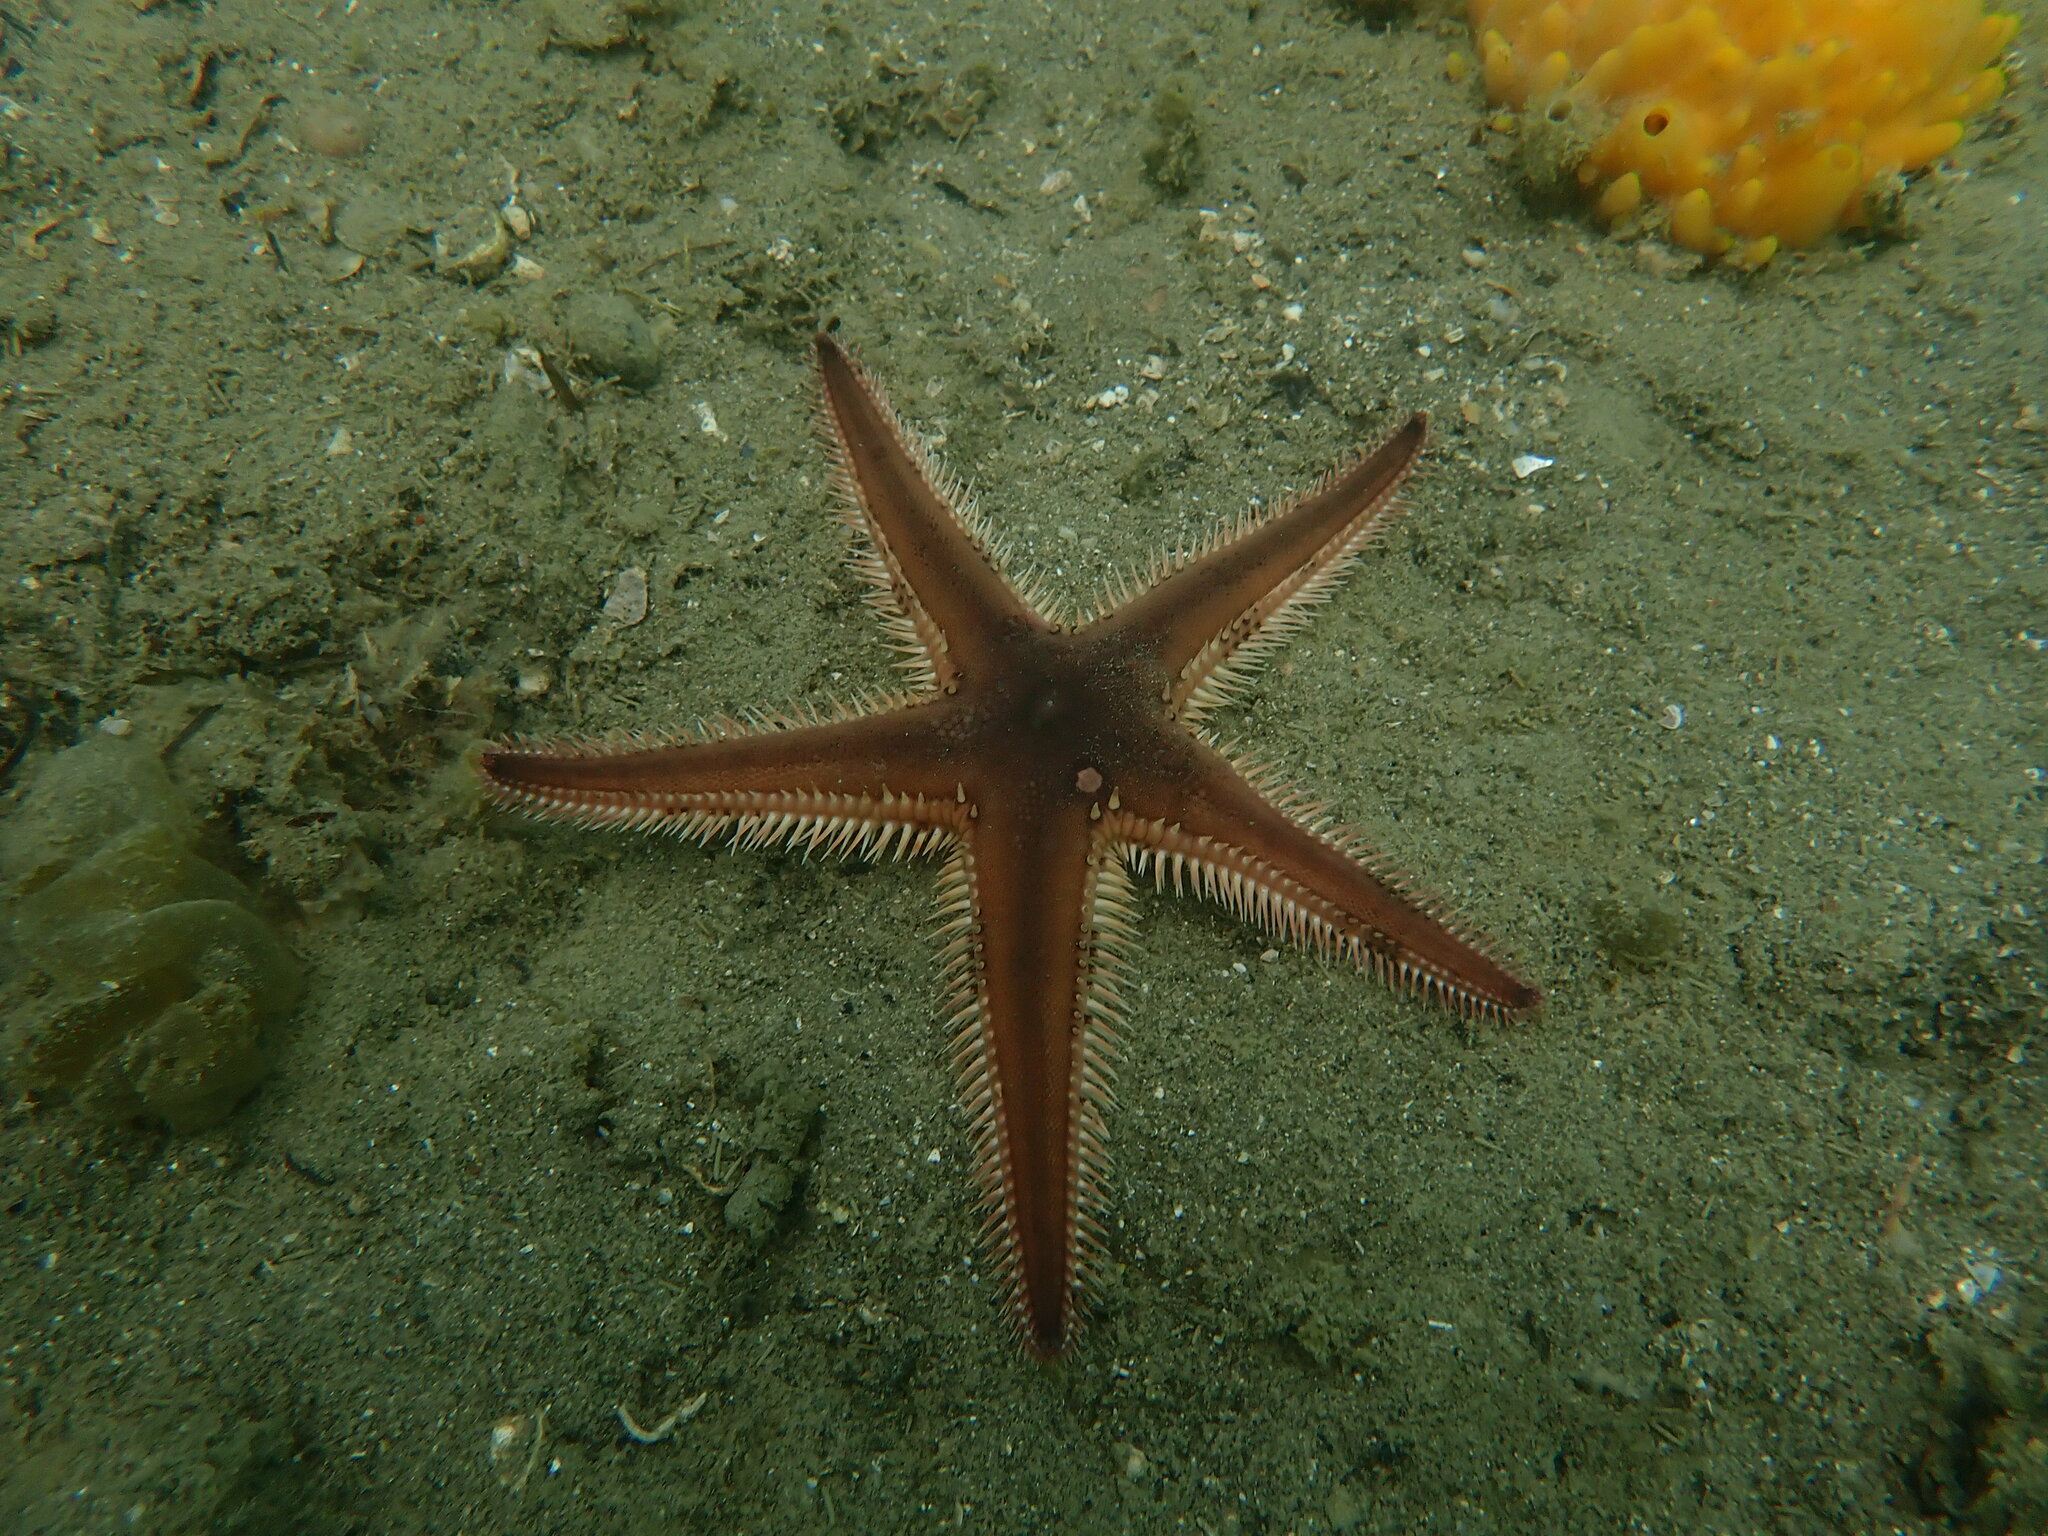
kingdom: Animalia
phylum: Echinodermata
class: Asteroidea
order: Paxillosida
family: Astropectinidae
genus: Astropecten
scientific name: Astropecten polyacanthus
